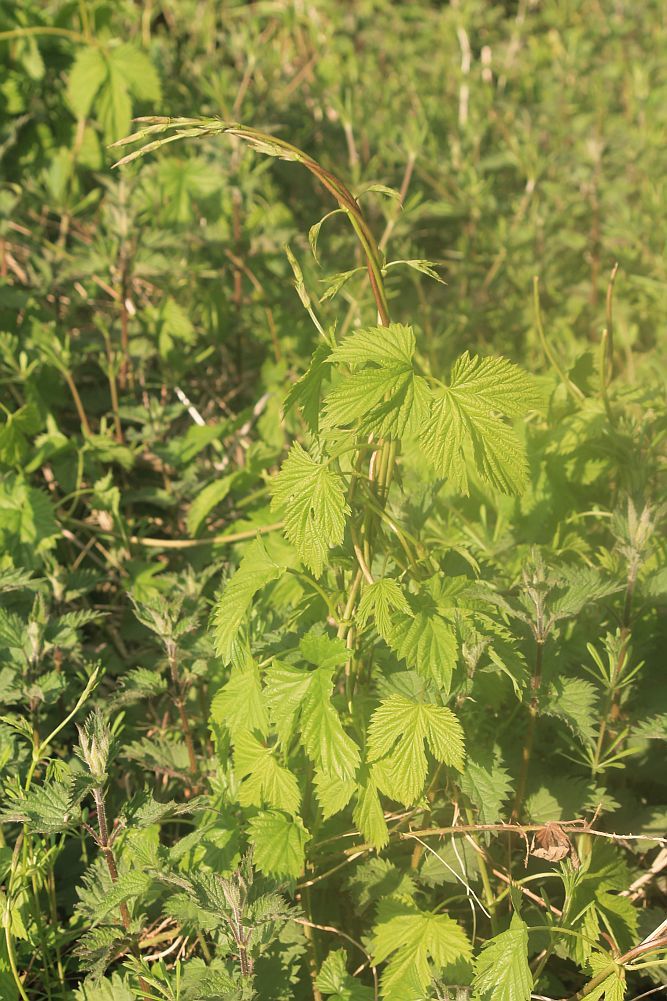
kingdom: Plantae
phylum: Tracheophyta
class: Magnoliopsida
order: Rosales
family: Cannabaceae
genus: Humulus
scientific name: Humulus lupulus
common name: Hop
